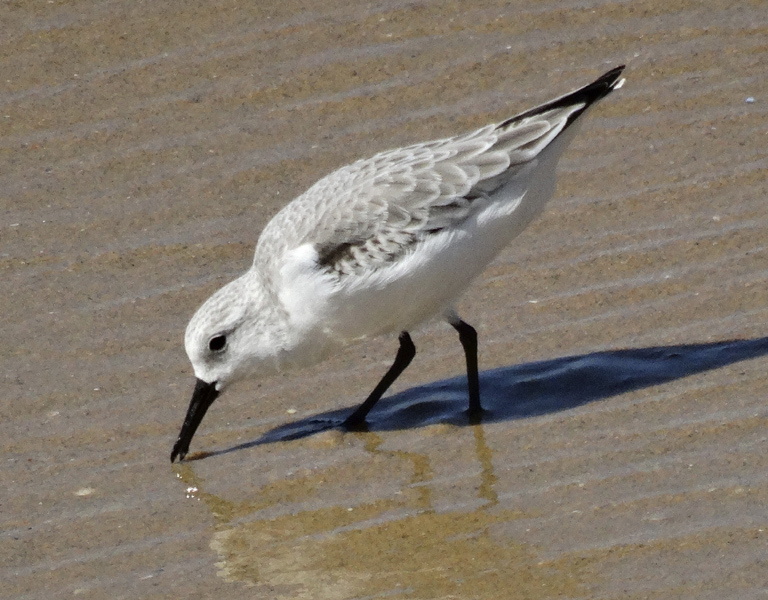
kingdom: Animalia
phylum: Chordata
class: Aves
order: Charadriiformes
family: Scolopacidae
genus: Calidris
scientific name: Calidris alba
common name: Sanderling
